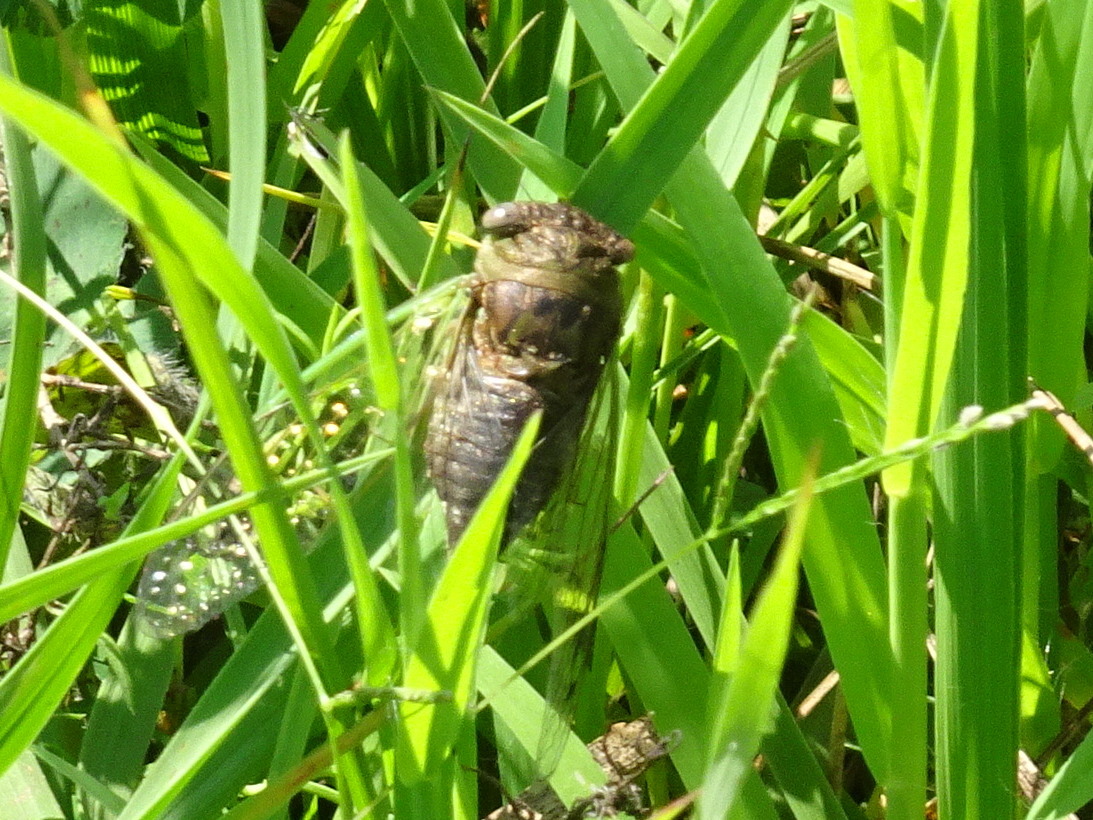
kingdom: Animalia
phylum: Arthropoda
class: Insecta
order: Hemiptera
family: Cicadidae
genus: Neotibicen
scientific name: Neotibicen aurifer
